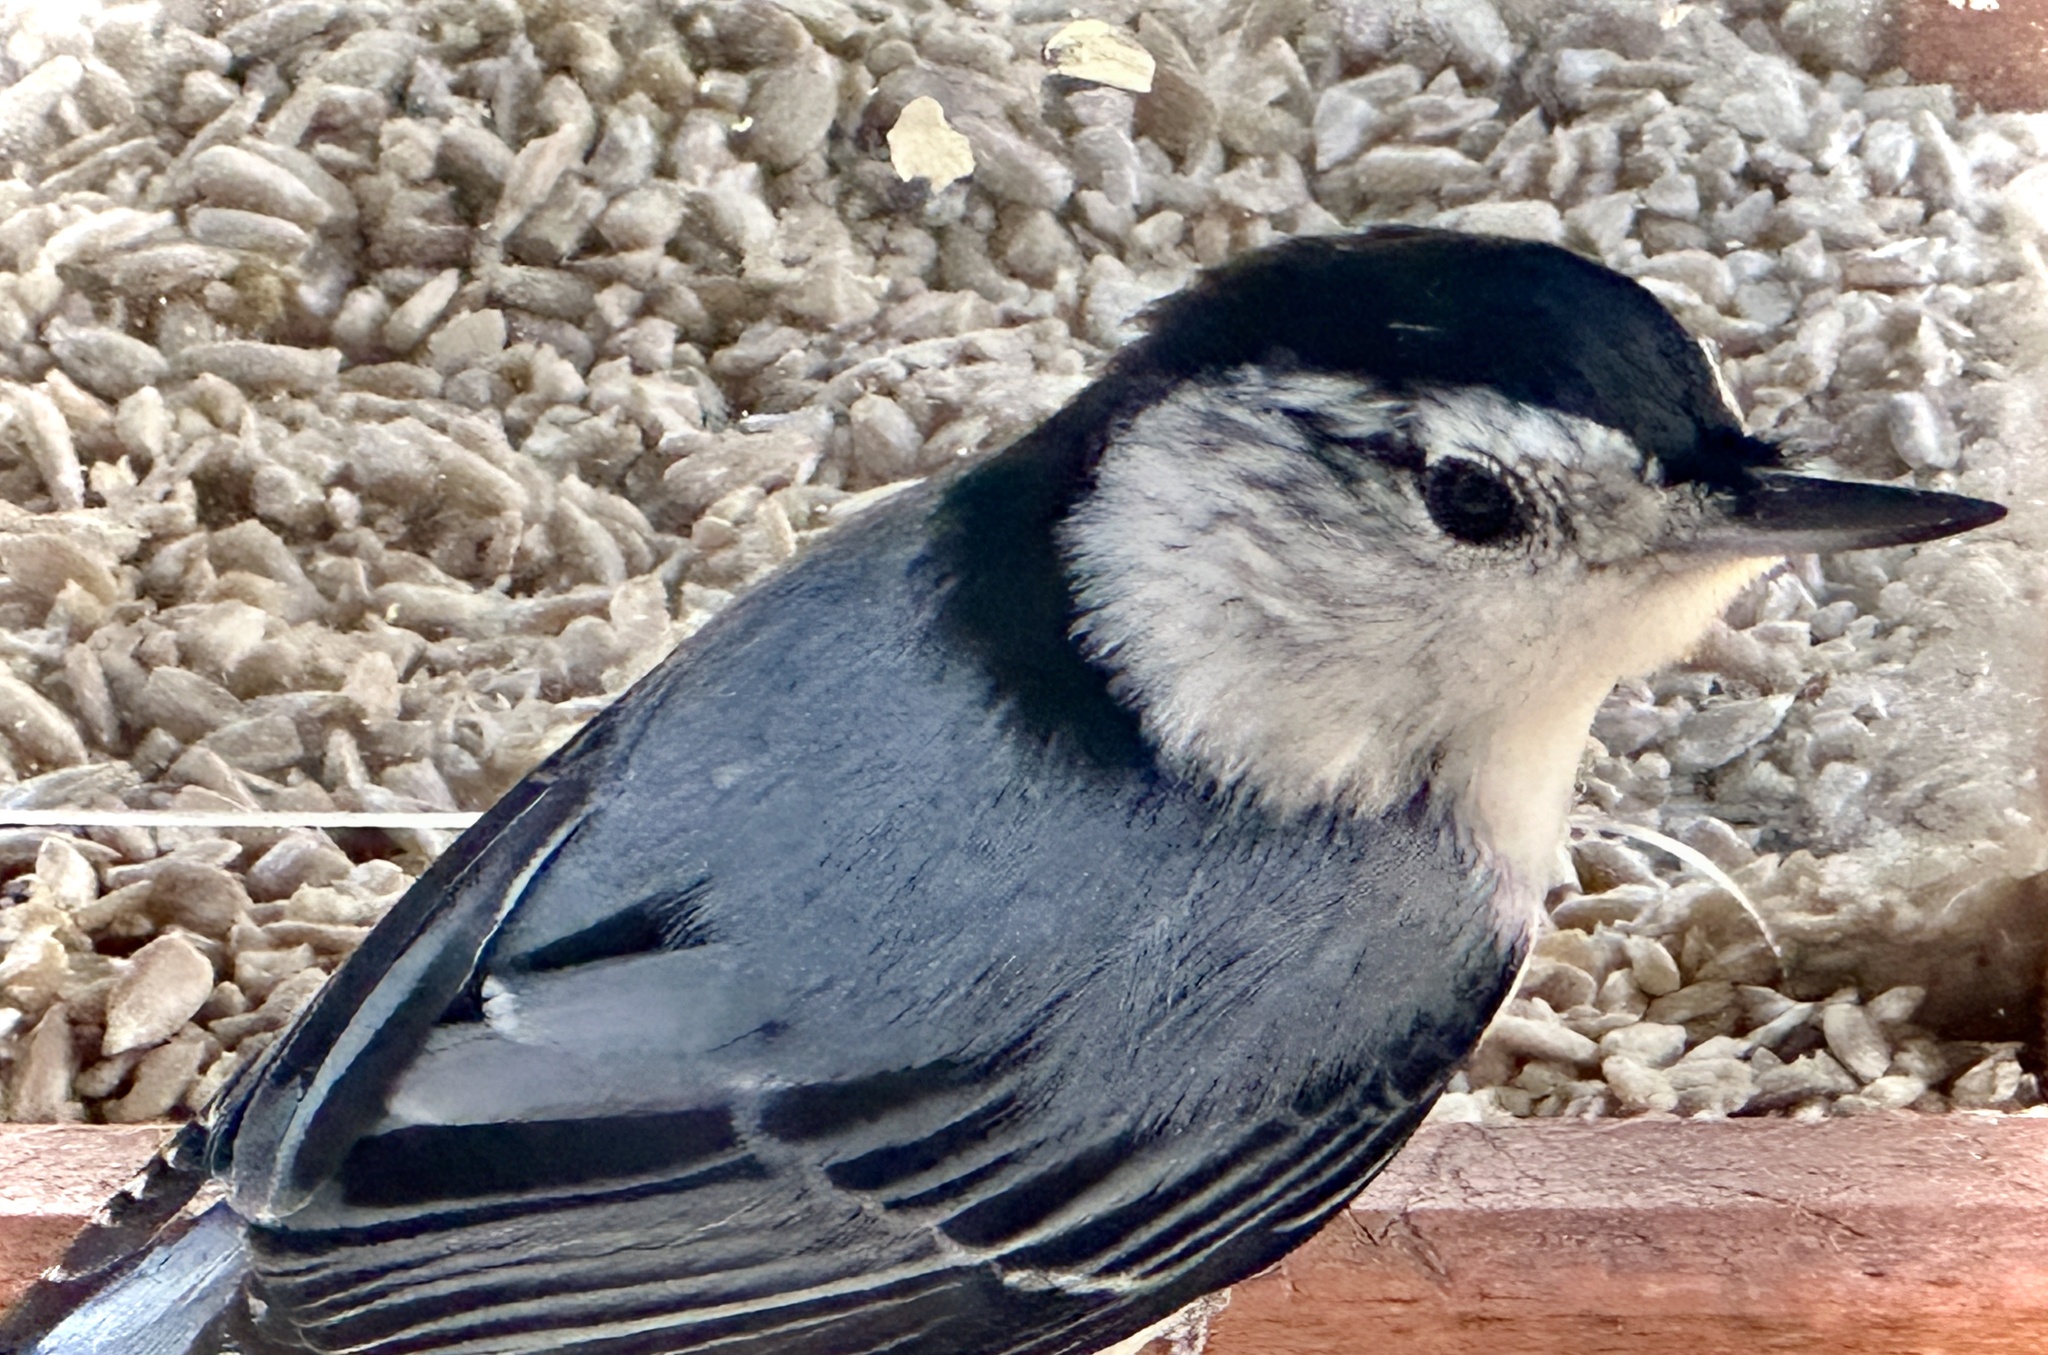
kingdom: Animalia
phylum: Chordata
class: Aves
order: Passeriformes
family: Sittidae
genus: Sitta
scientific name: Sitta carolinensis
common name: White-breasted nuthatch
